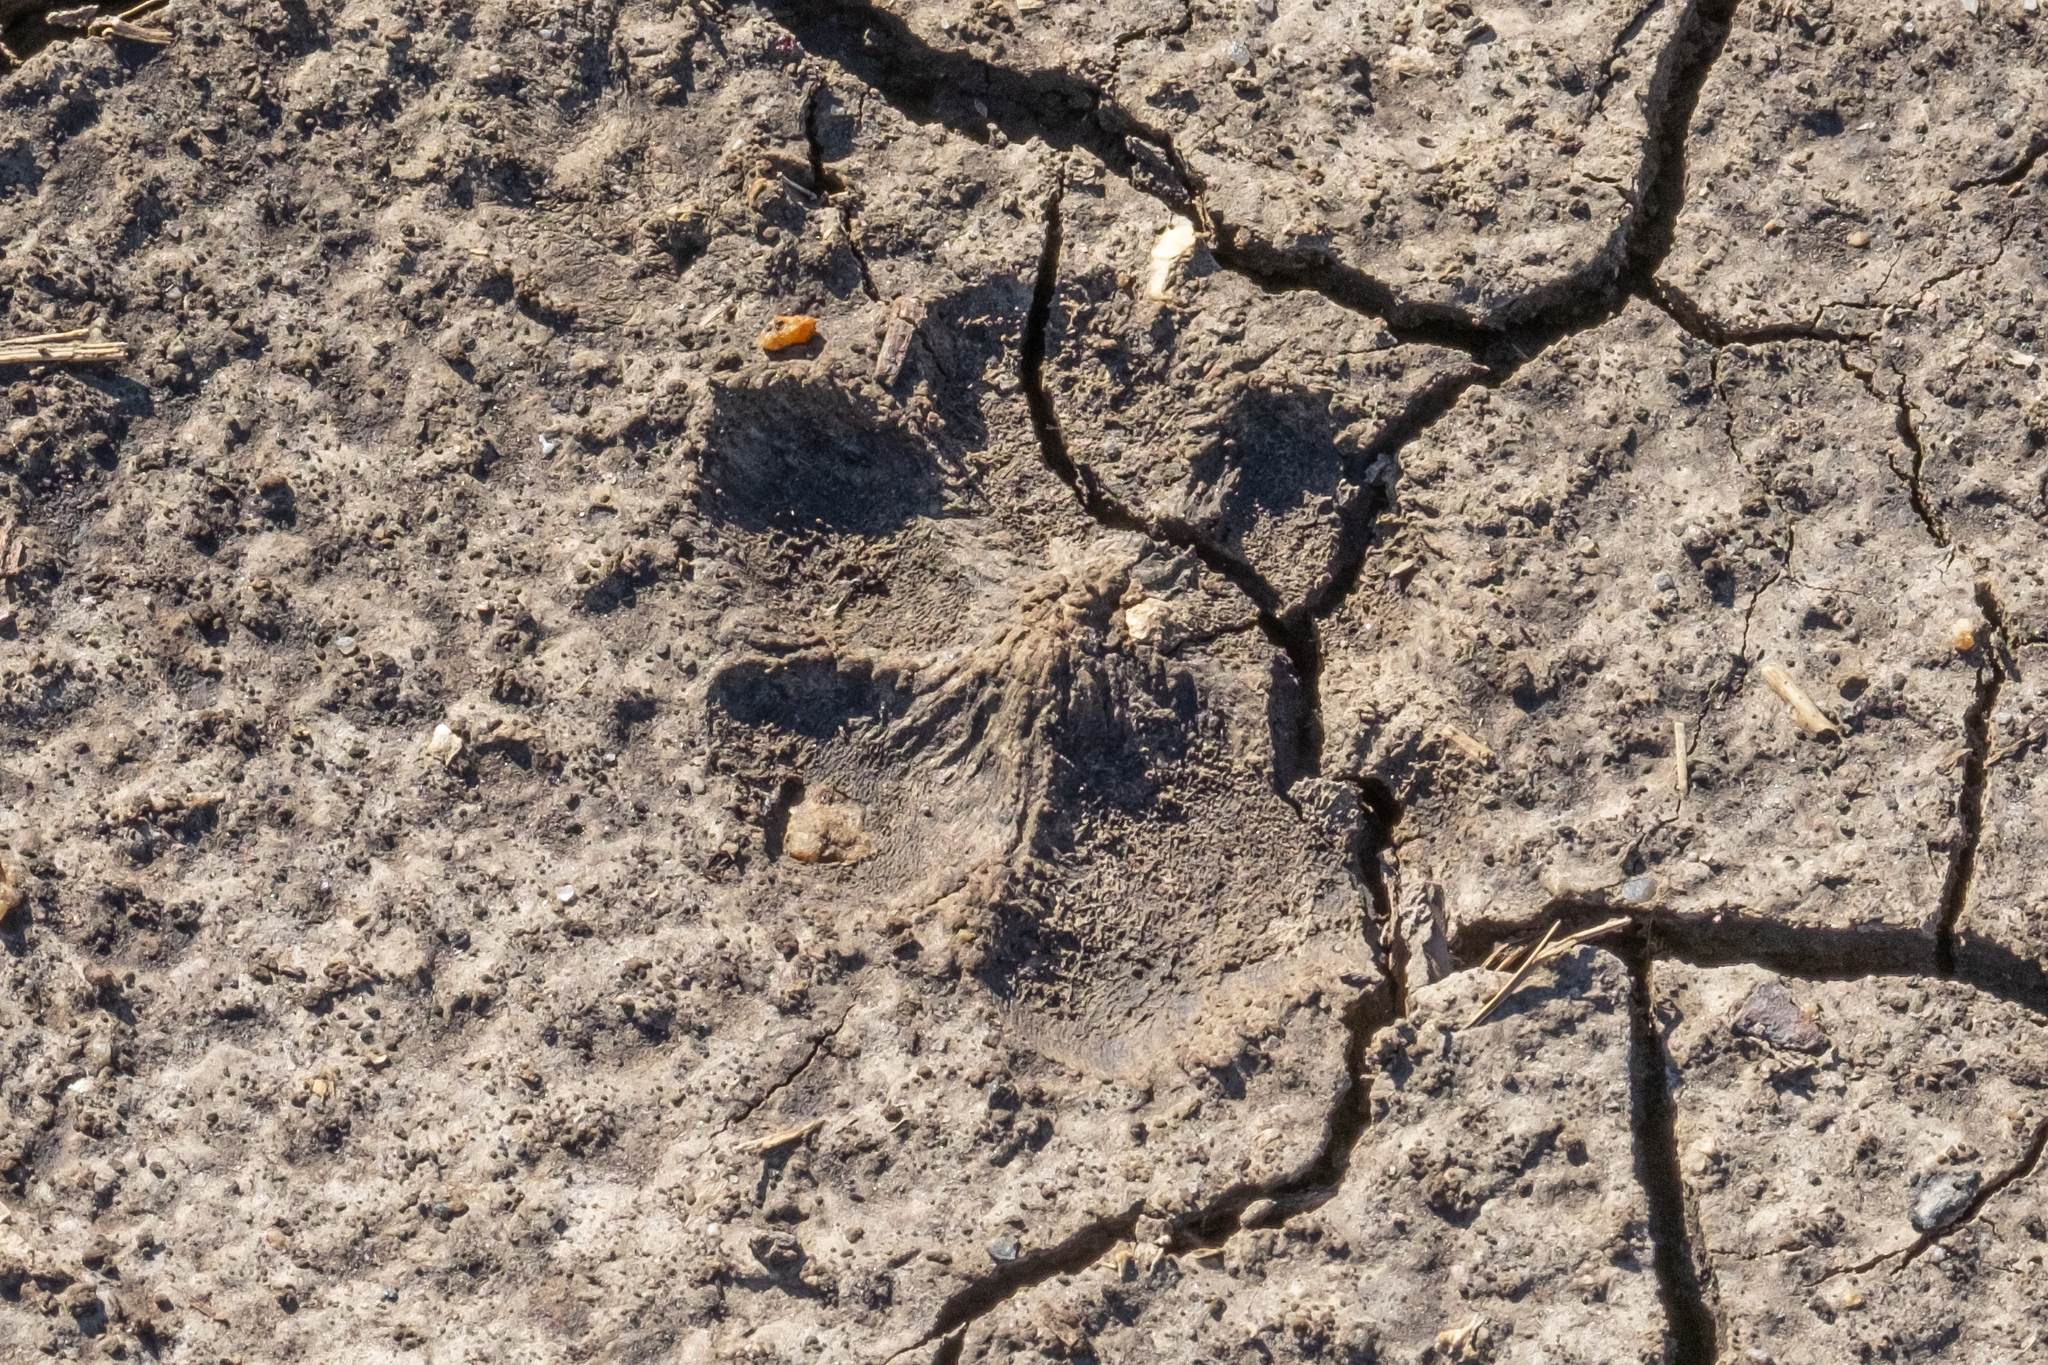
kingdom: Animalia
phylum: Chordata
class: Mammalia
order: Carnivora
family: Canidae
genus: Canis
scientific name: Canis latrans
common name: Coyote
